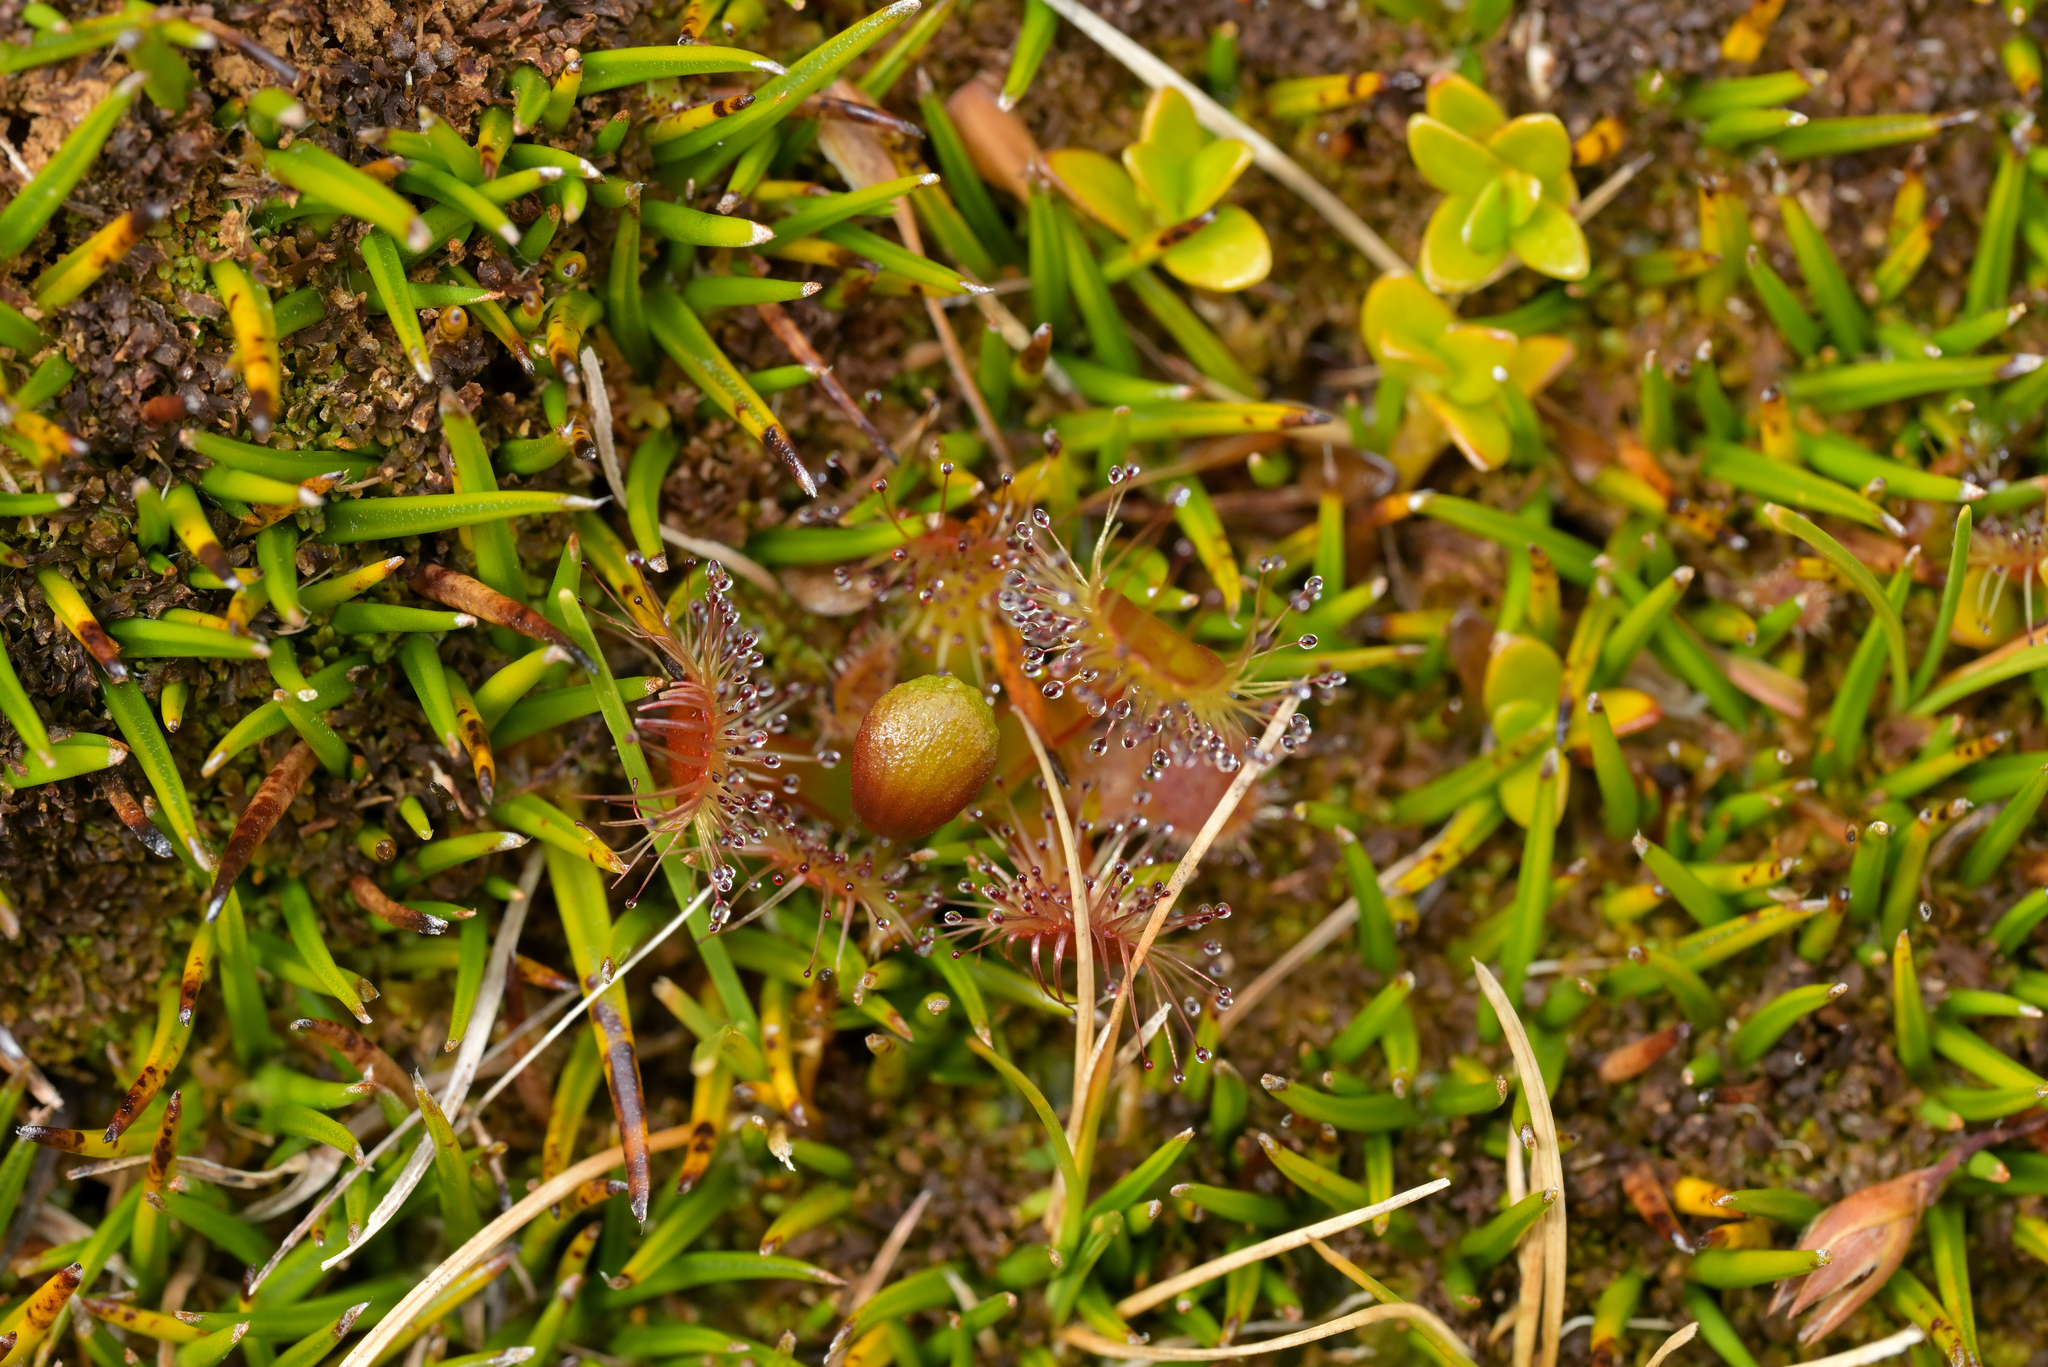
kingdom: Plantae
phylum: Tracheophyta
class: Magnoliopsida
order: Caryophyllales
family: Droseraceae
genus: Drosera
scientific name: Drosera stenopetala
